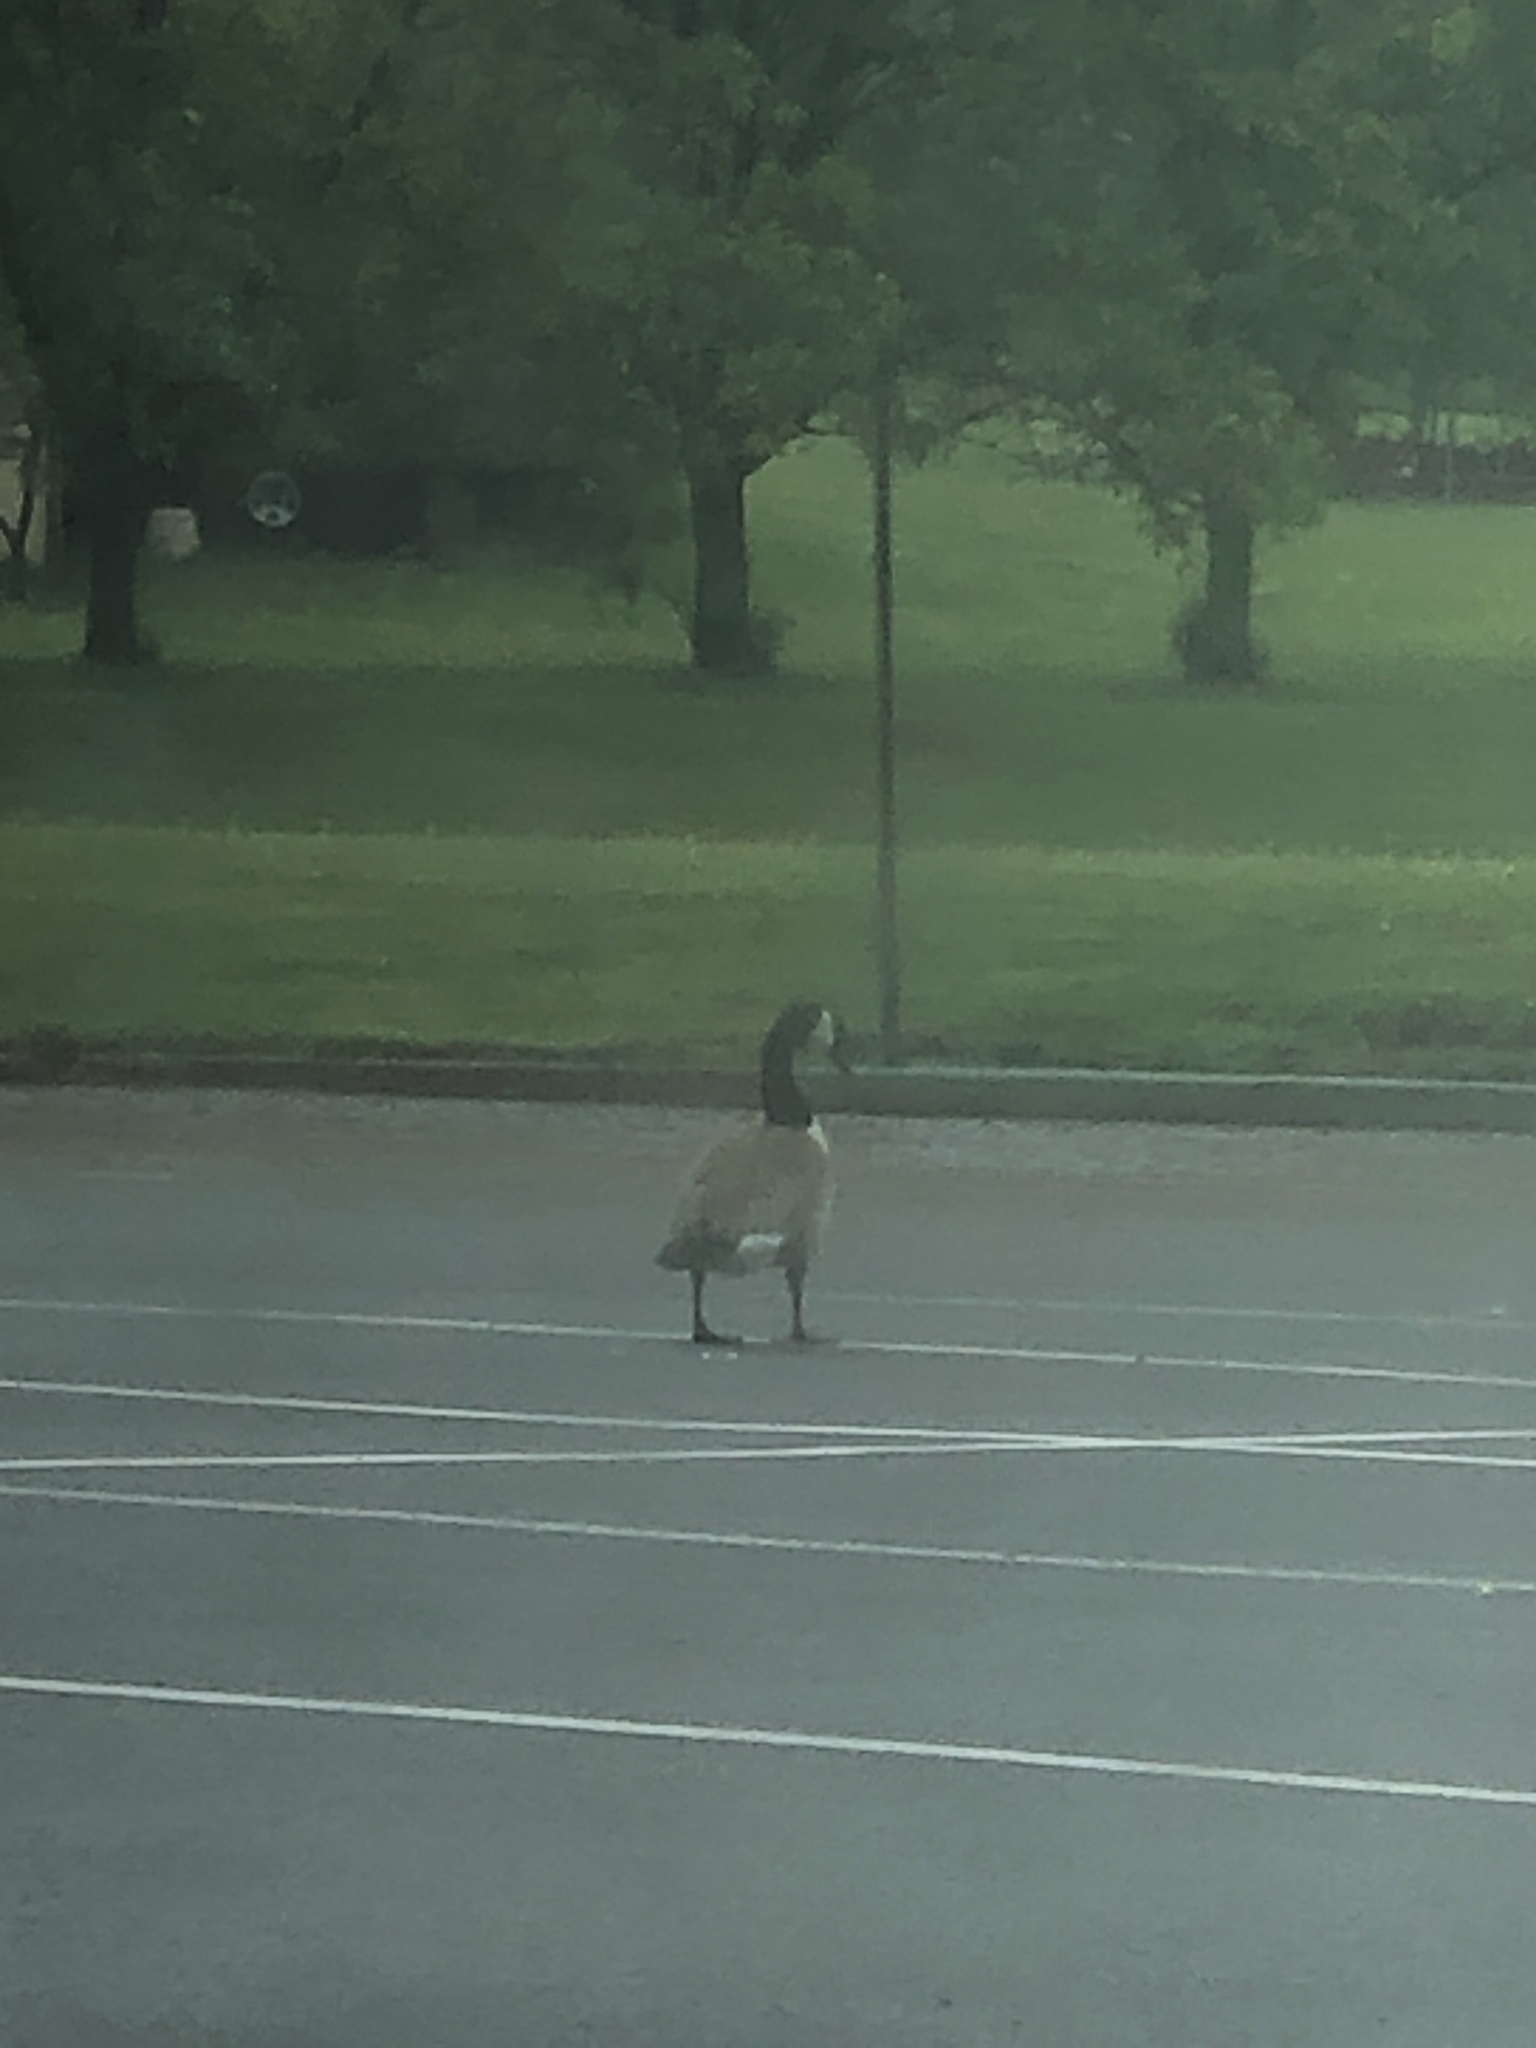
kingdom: Animalia
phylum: Chordata
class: Aves
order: Anseriformes
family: Anatidae
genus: Branta
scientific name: Branta canadensis
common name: Canada goose
